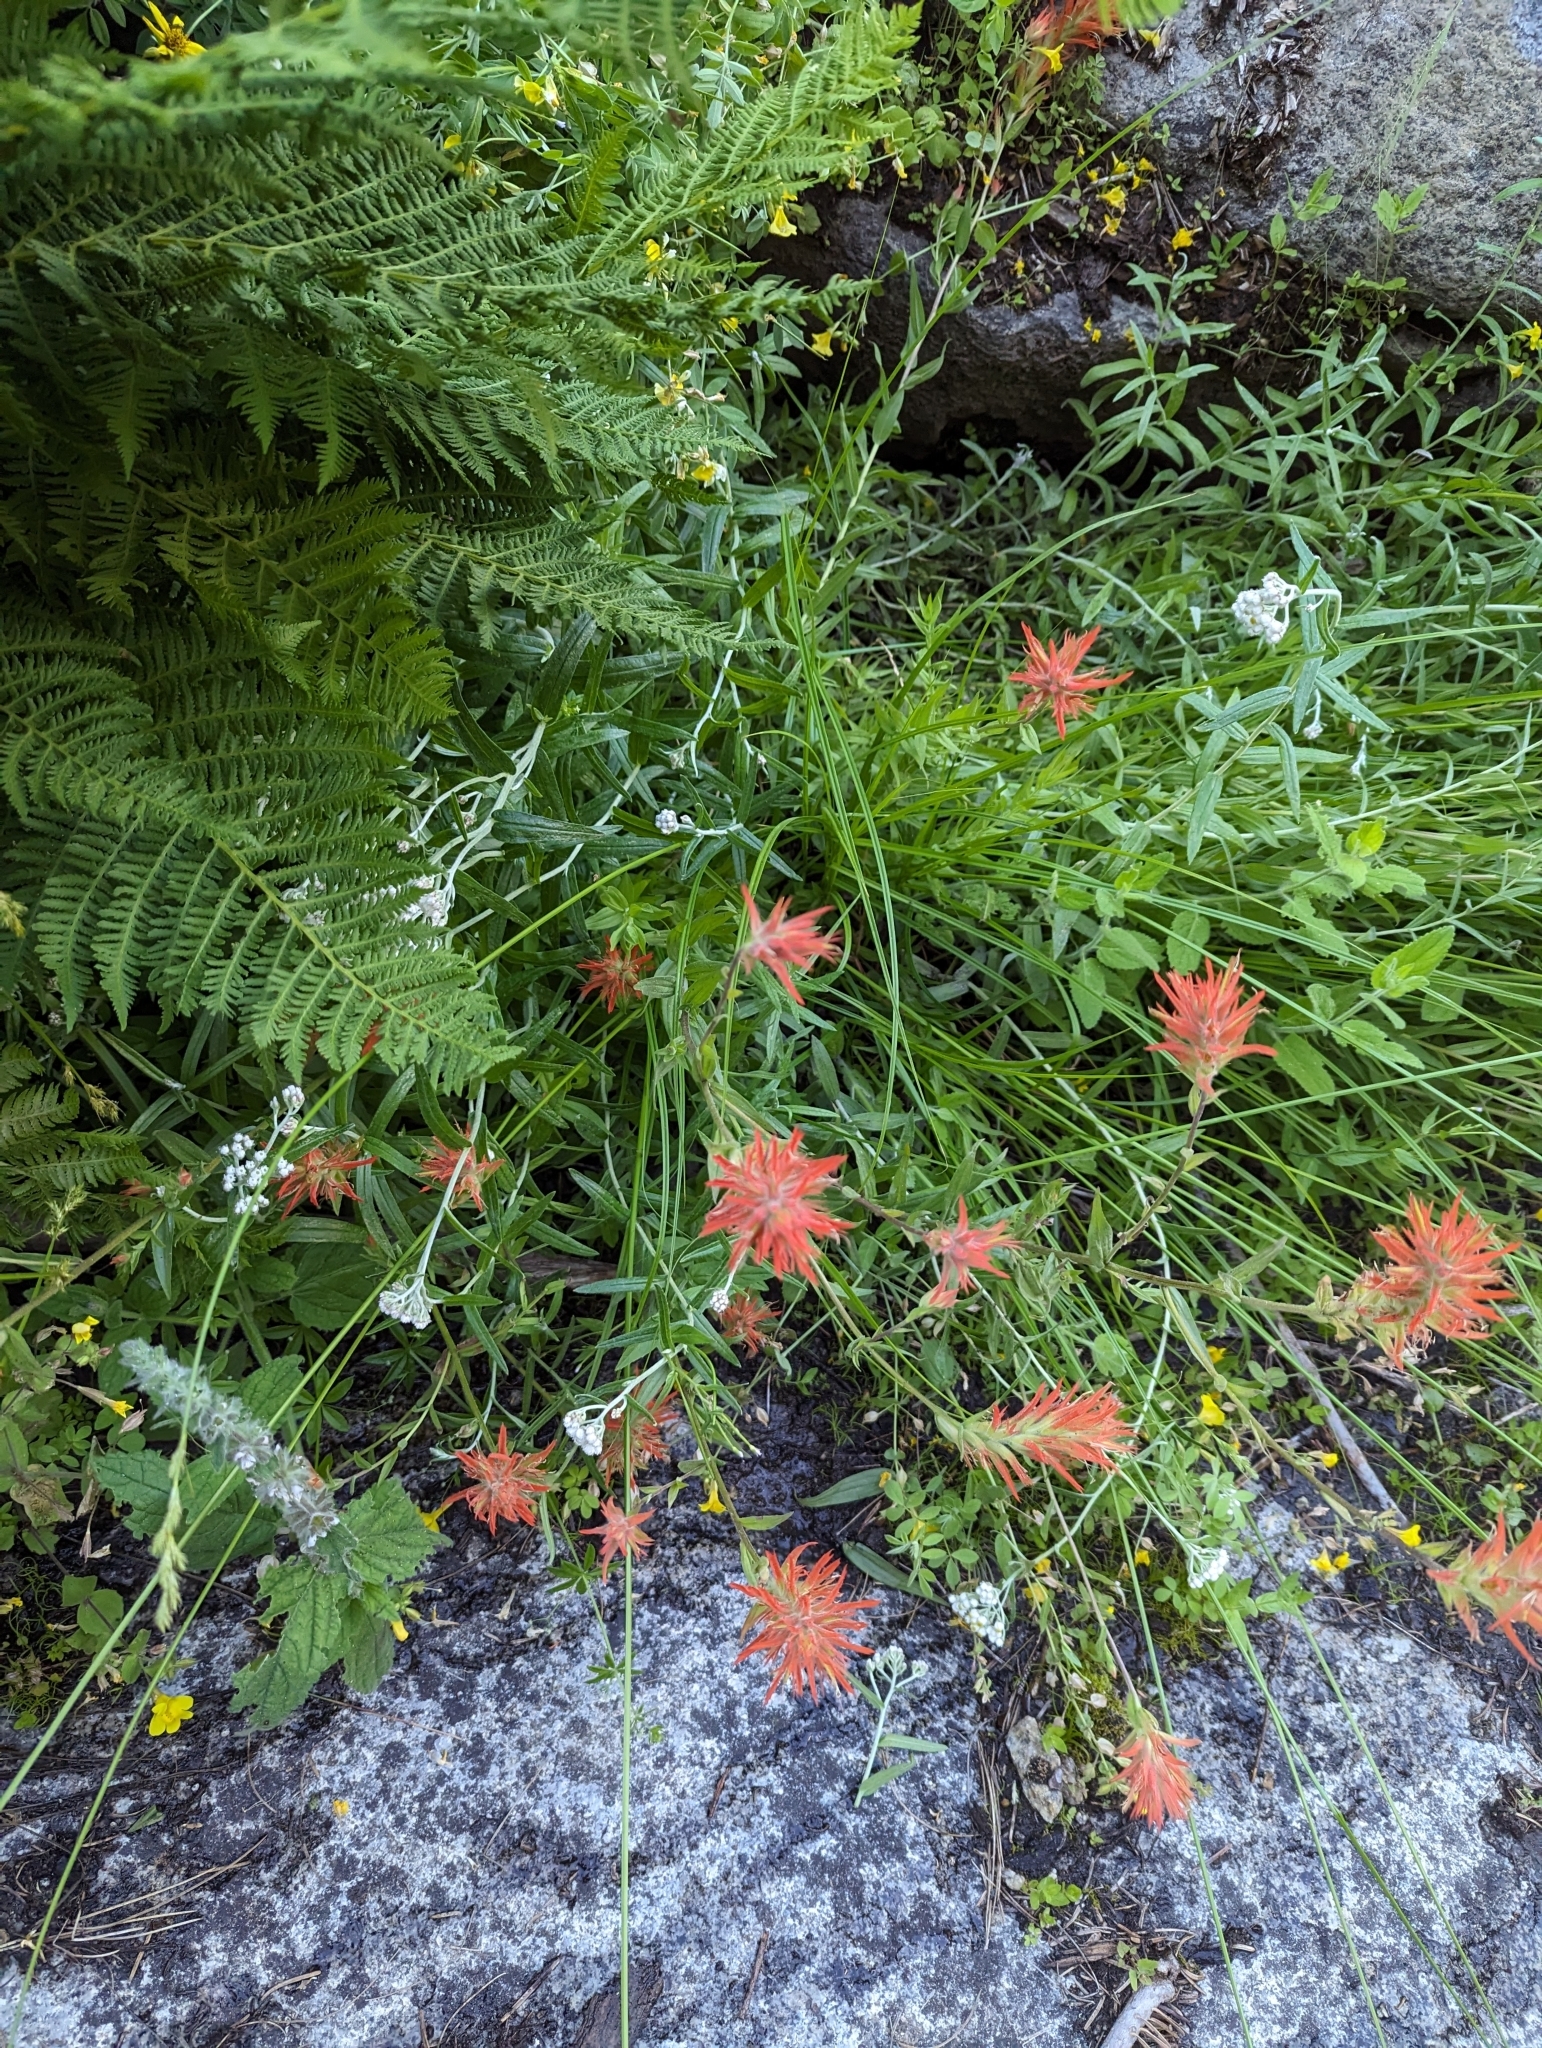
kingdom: Plantae
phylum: Tracheophyta
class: Magnoliopsida
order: Lamiales
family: Orobanchaceae
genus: Castilleja
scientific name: Castilleja miniata
